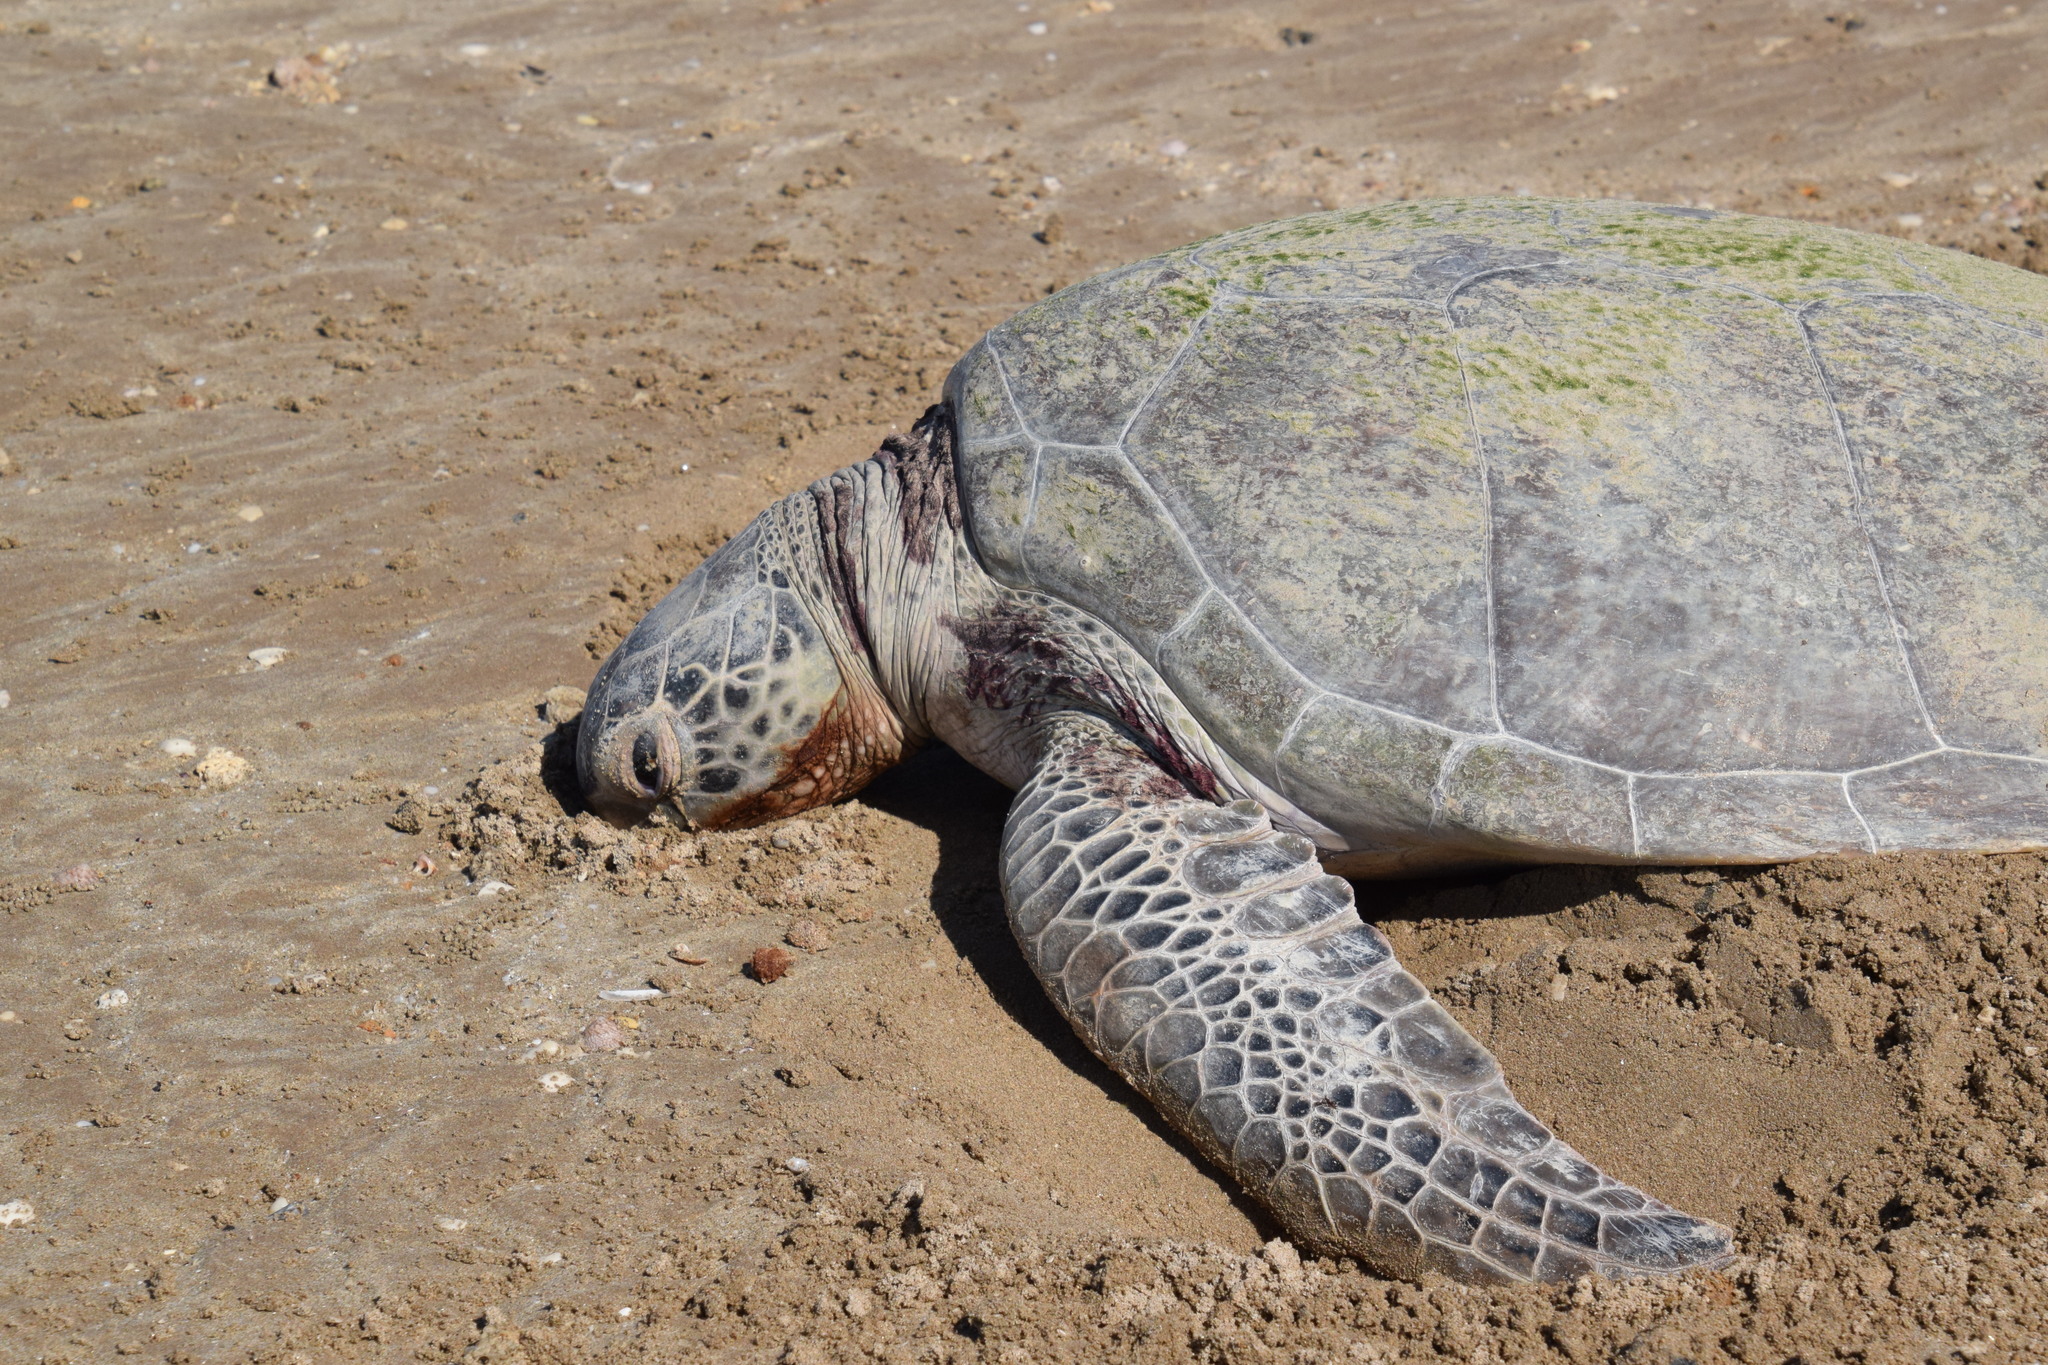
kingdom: Animalia
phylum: Chordata
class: Testudines
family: Cheloniidae
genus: Chelonia
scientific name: Chelonia mydas
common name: Green turtle
